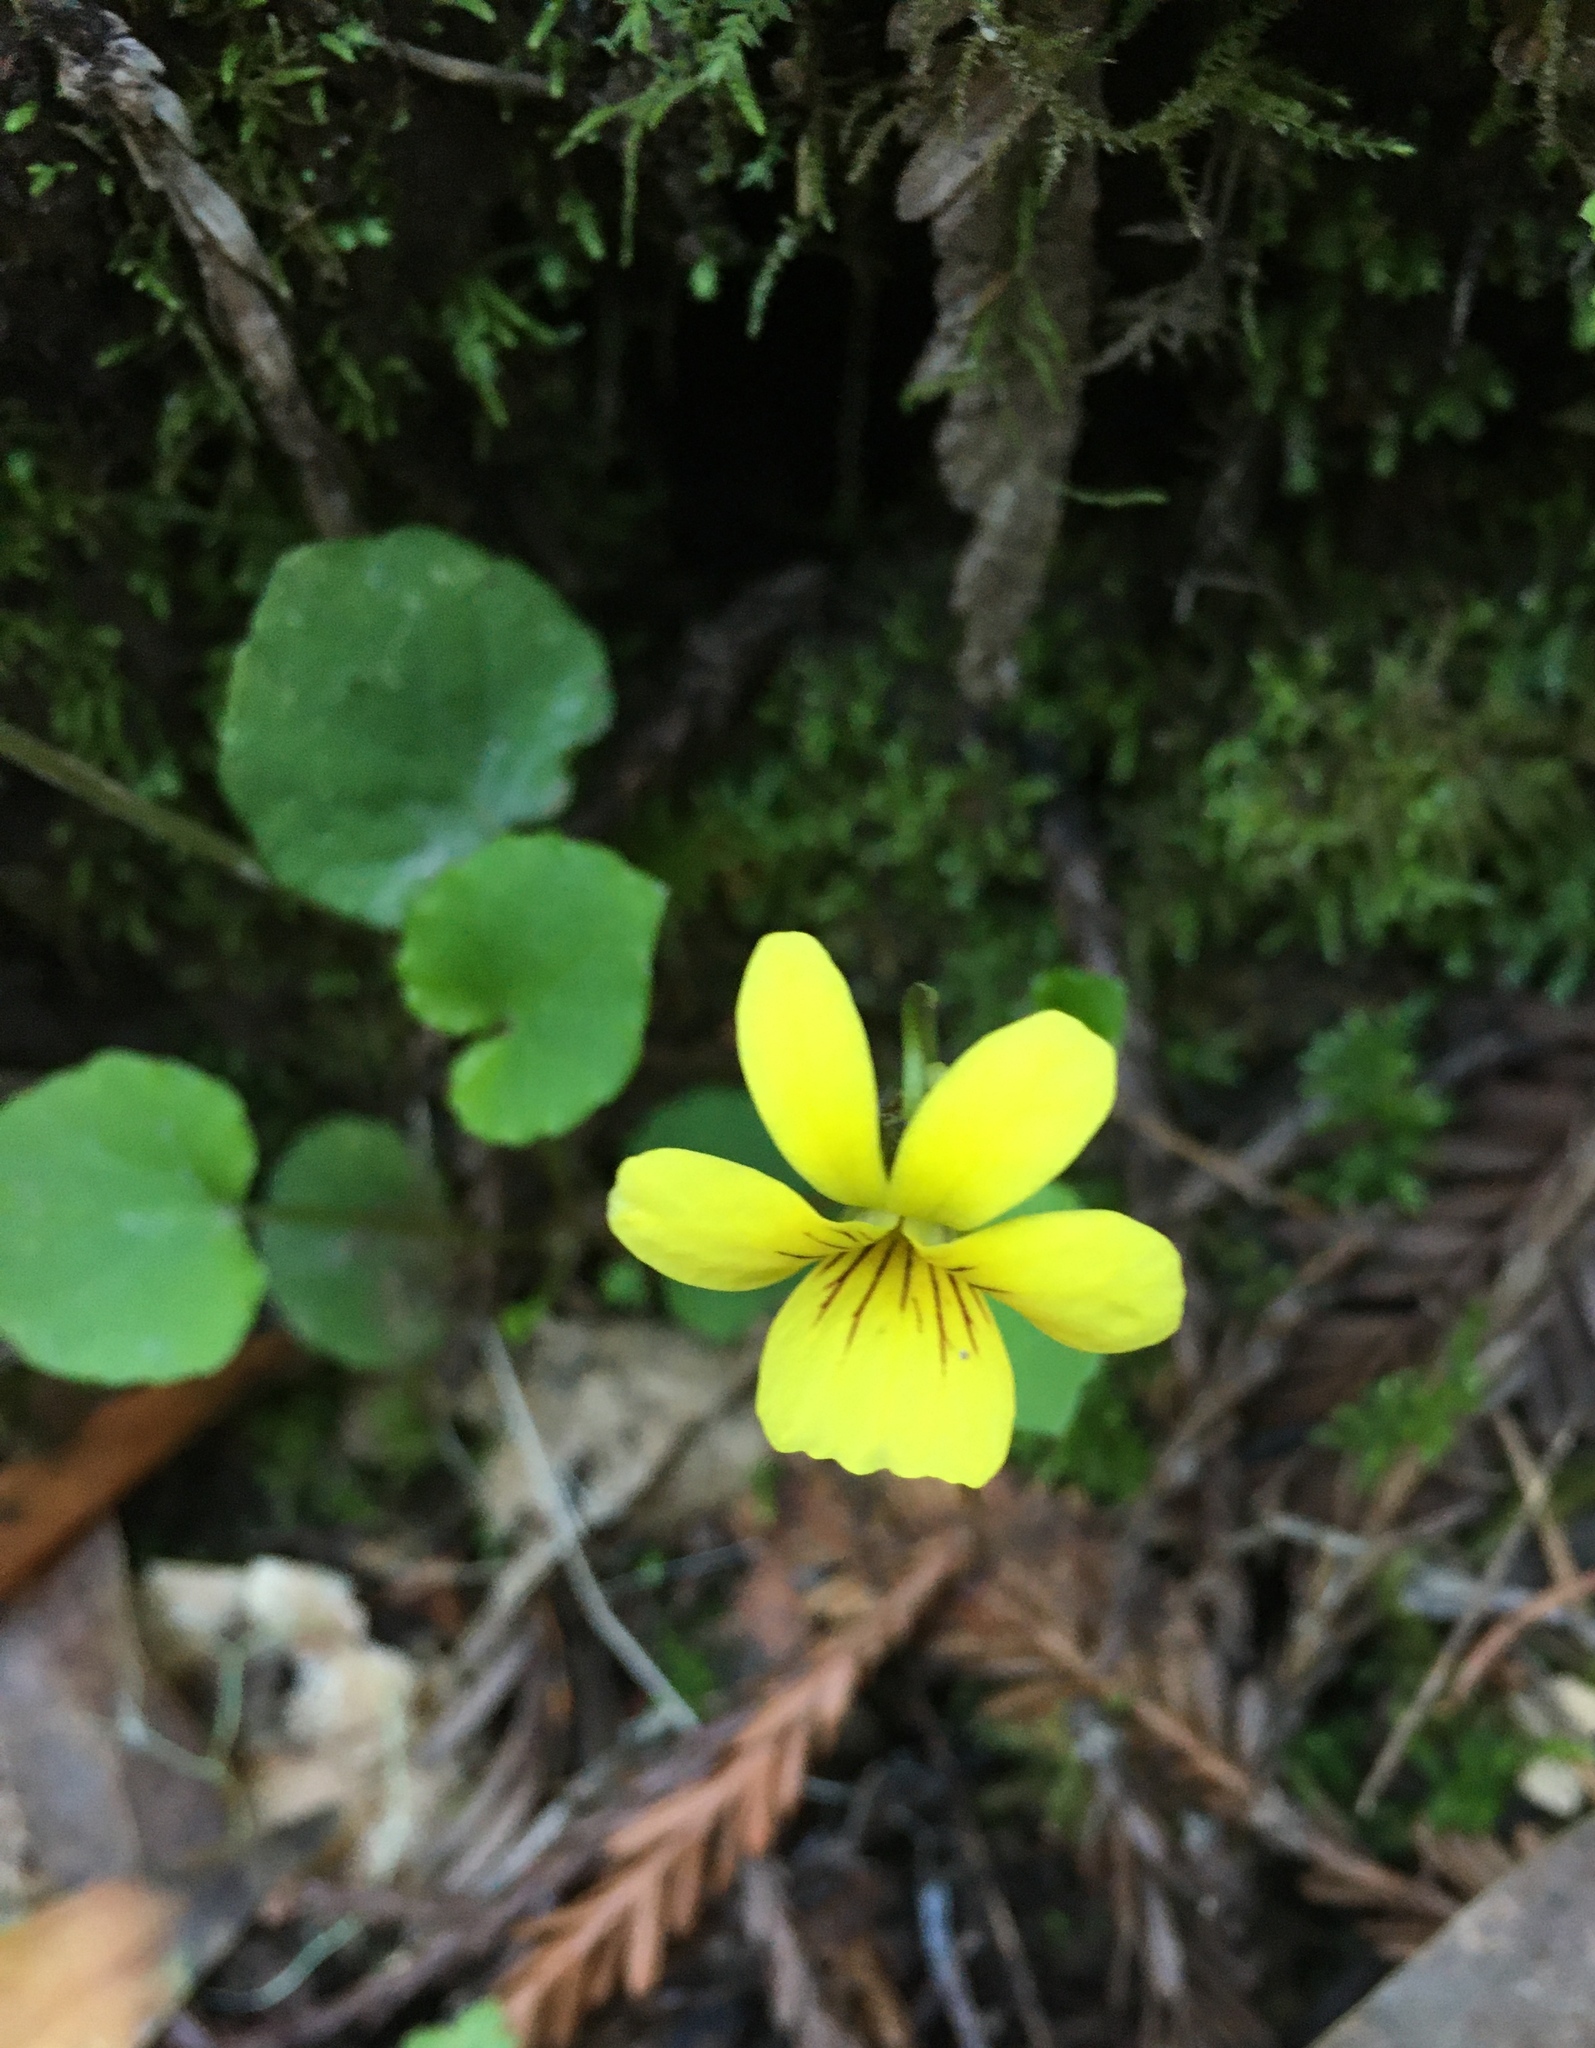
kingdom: Plantae
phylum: Tracheophyta
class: Magnoliopsida
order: Malpighiales
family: Violaceae
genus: Viola
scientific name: Viola sempervirens
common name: Evergreen violet
